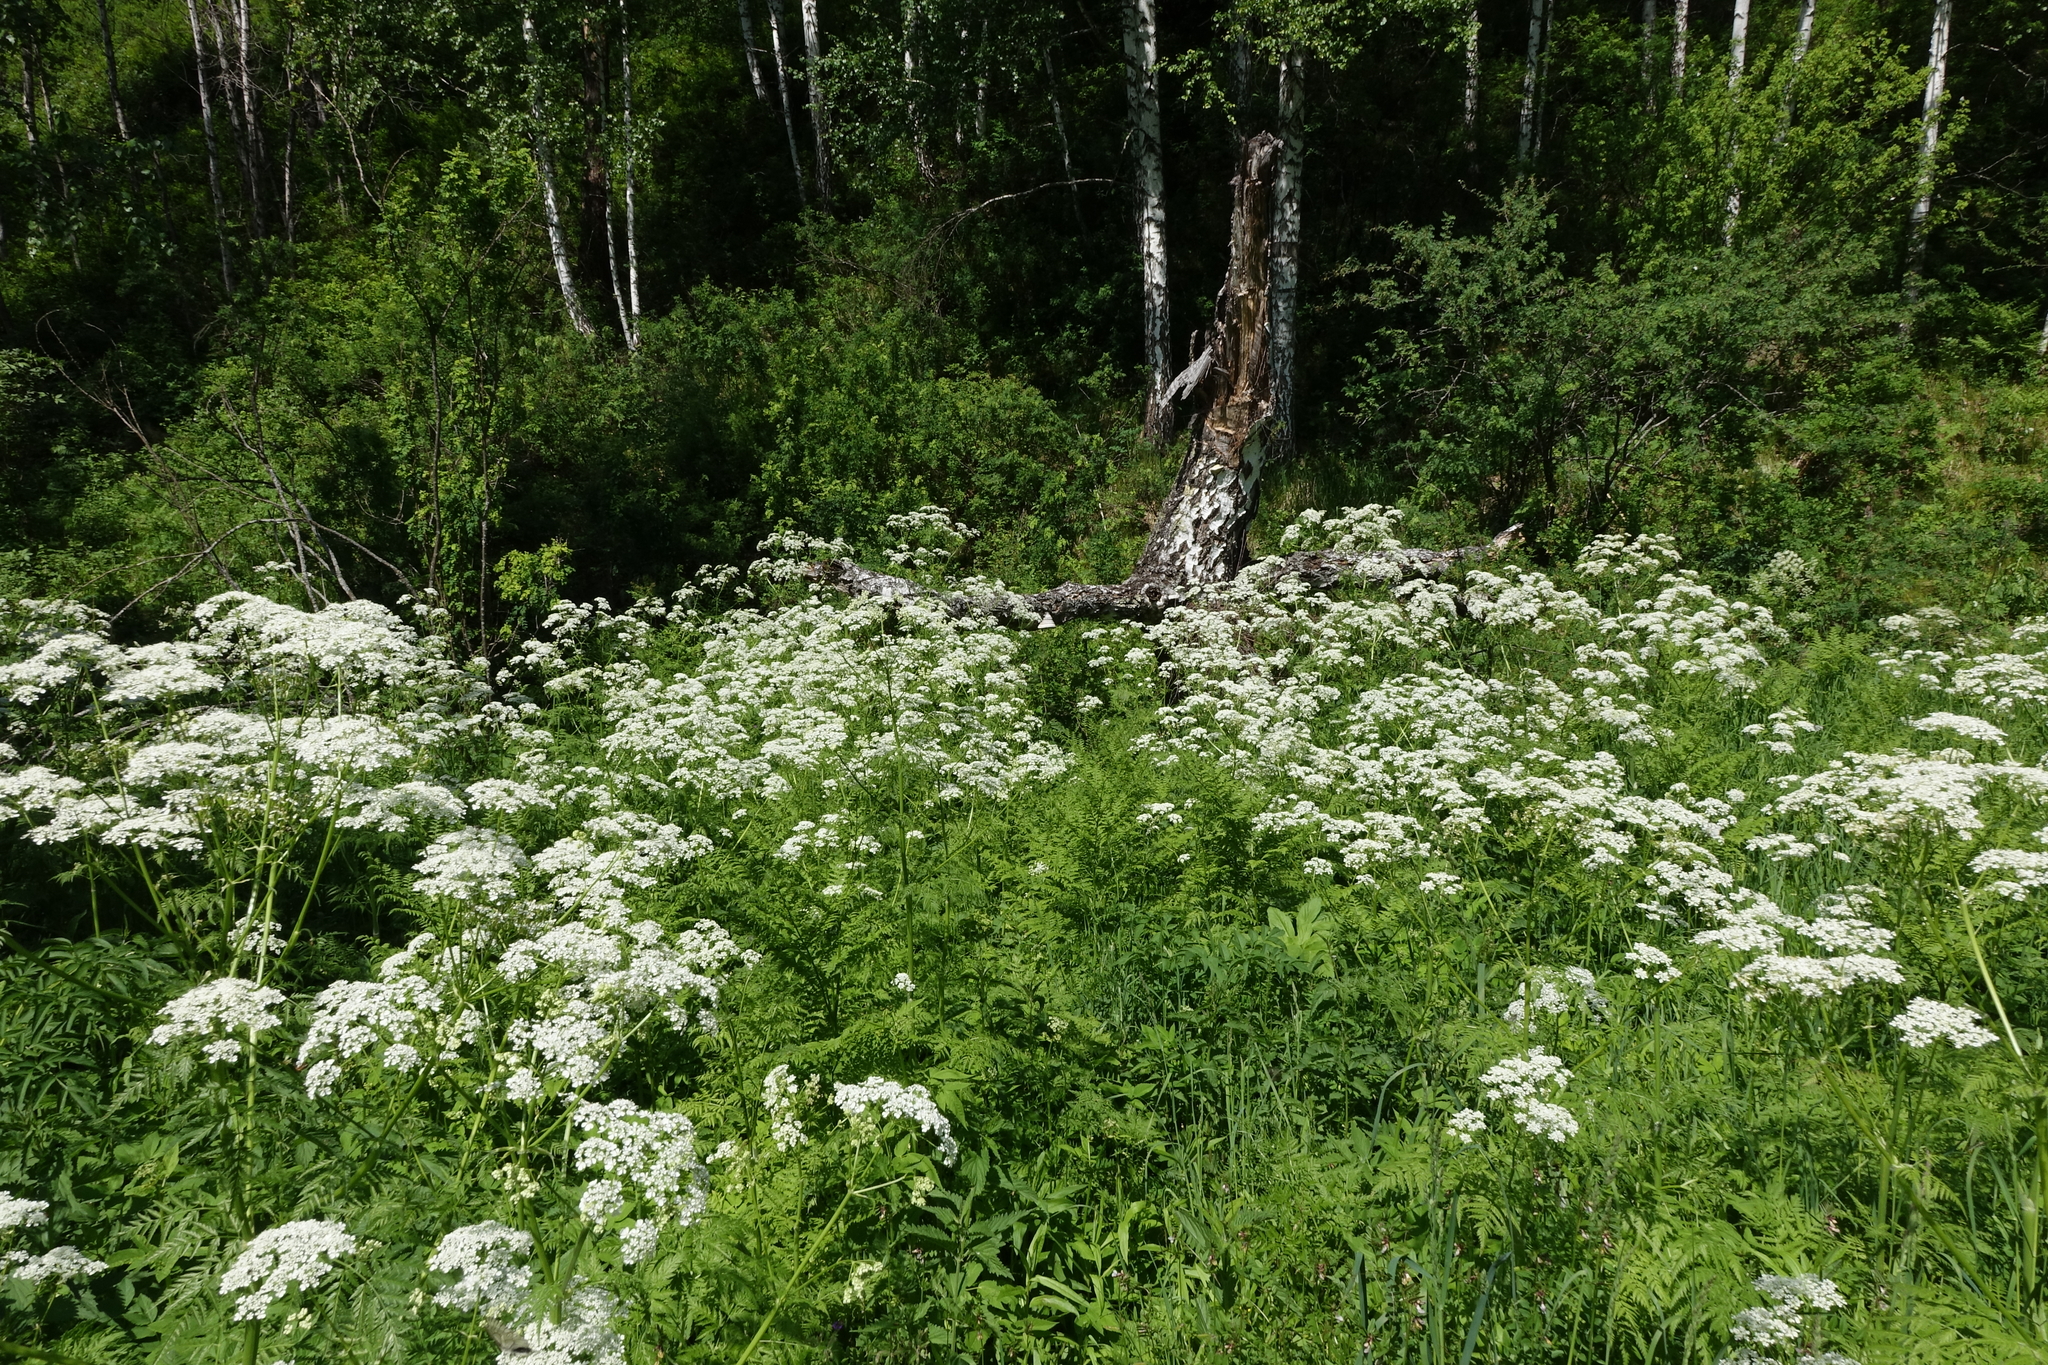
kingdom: Plantae
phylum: Tracheophyta
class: Magnoliopsida
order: Apiales
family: Apiaceae
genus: Anthriscus
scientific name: Anthriscus sylvestris
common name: Cow parsley
